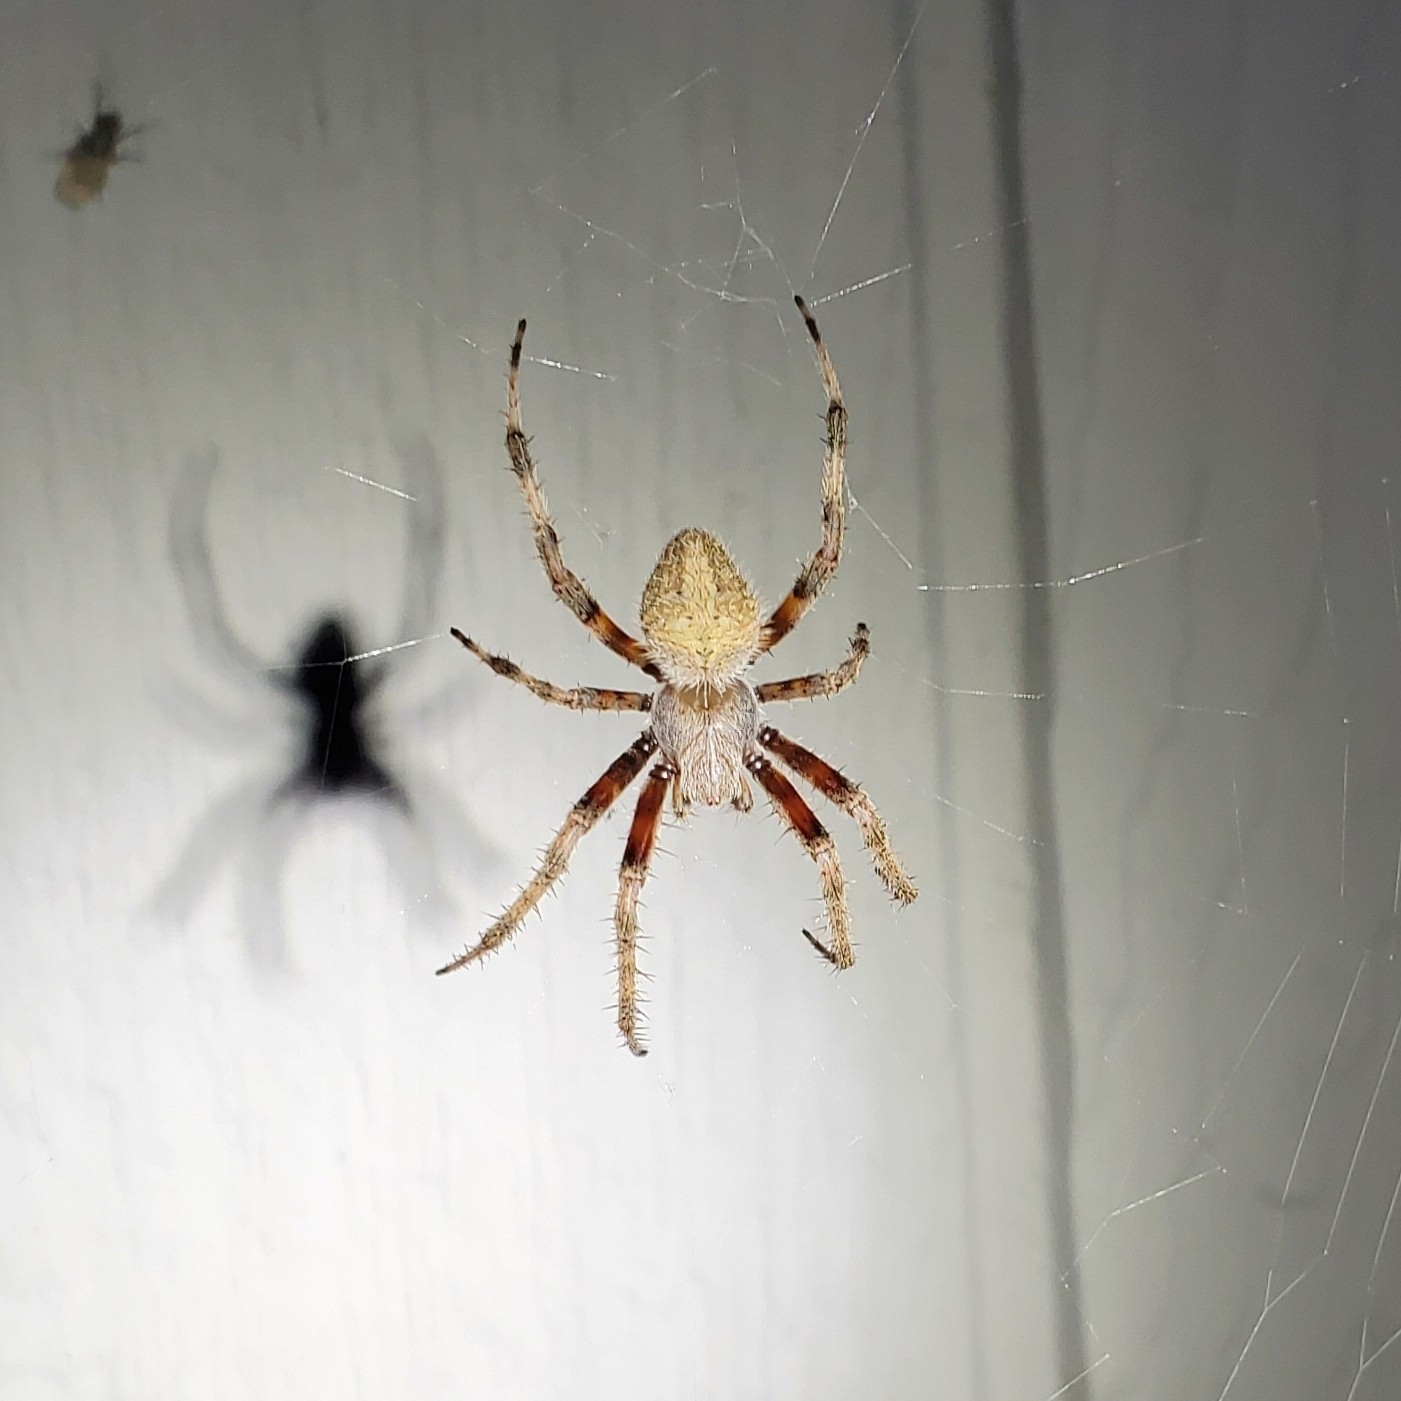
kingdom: Animalia
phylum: Arthropoda
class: Arachnida
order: Araneae
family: Araneidae
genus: Neoscona
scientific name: Neoscona crucifera
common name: Spotted orbweaver
